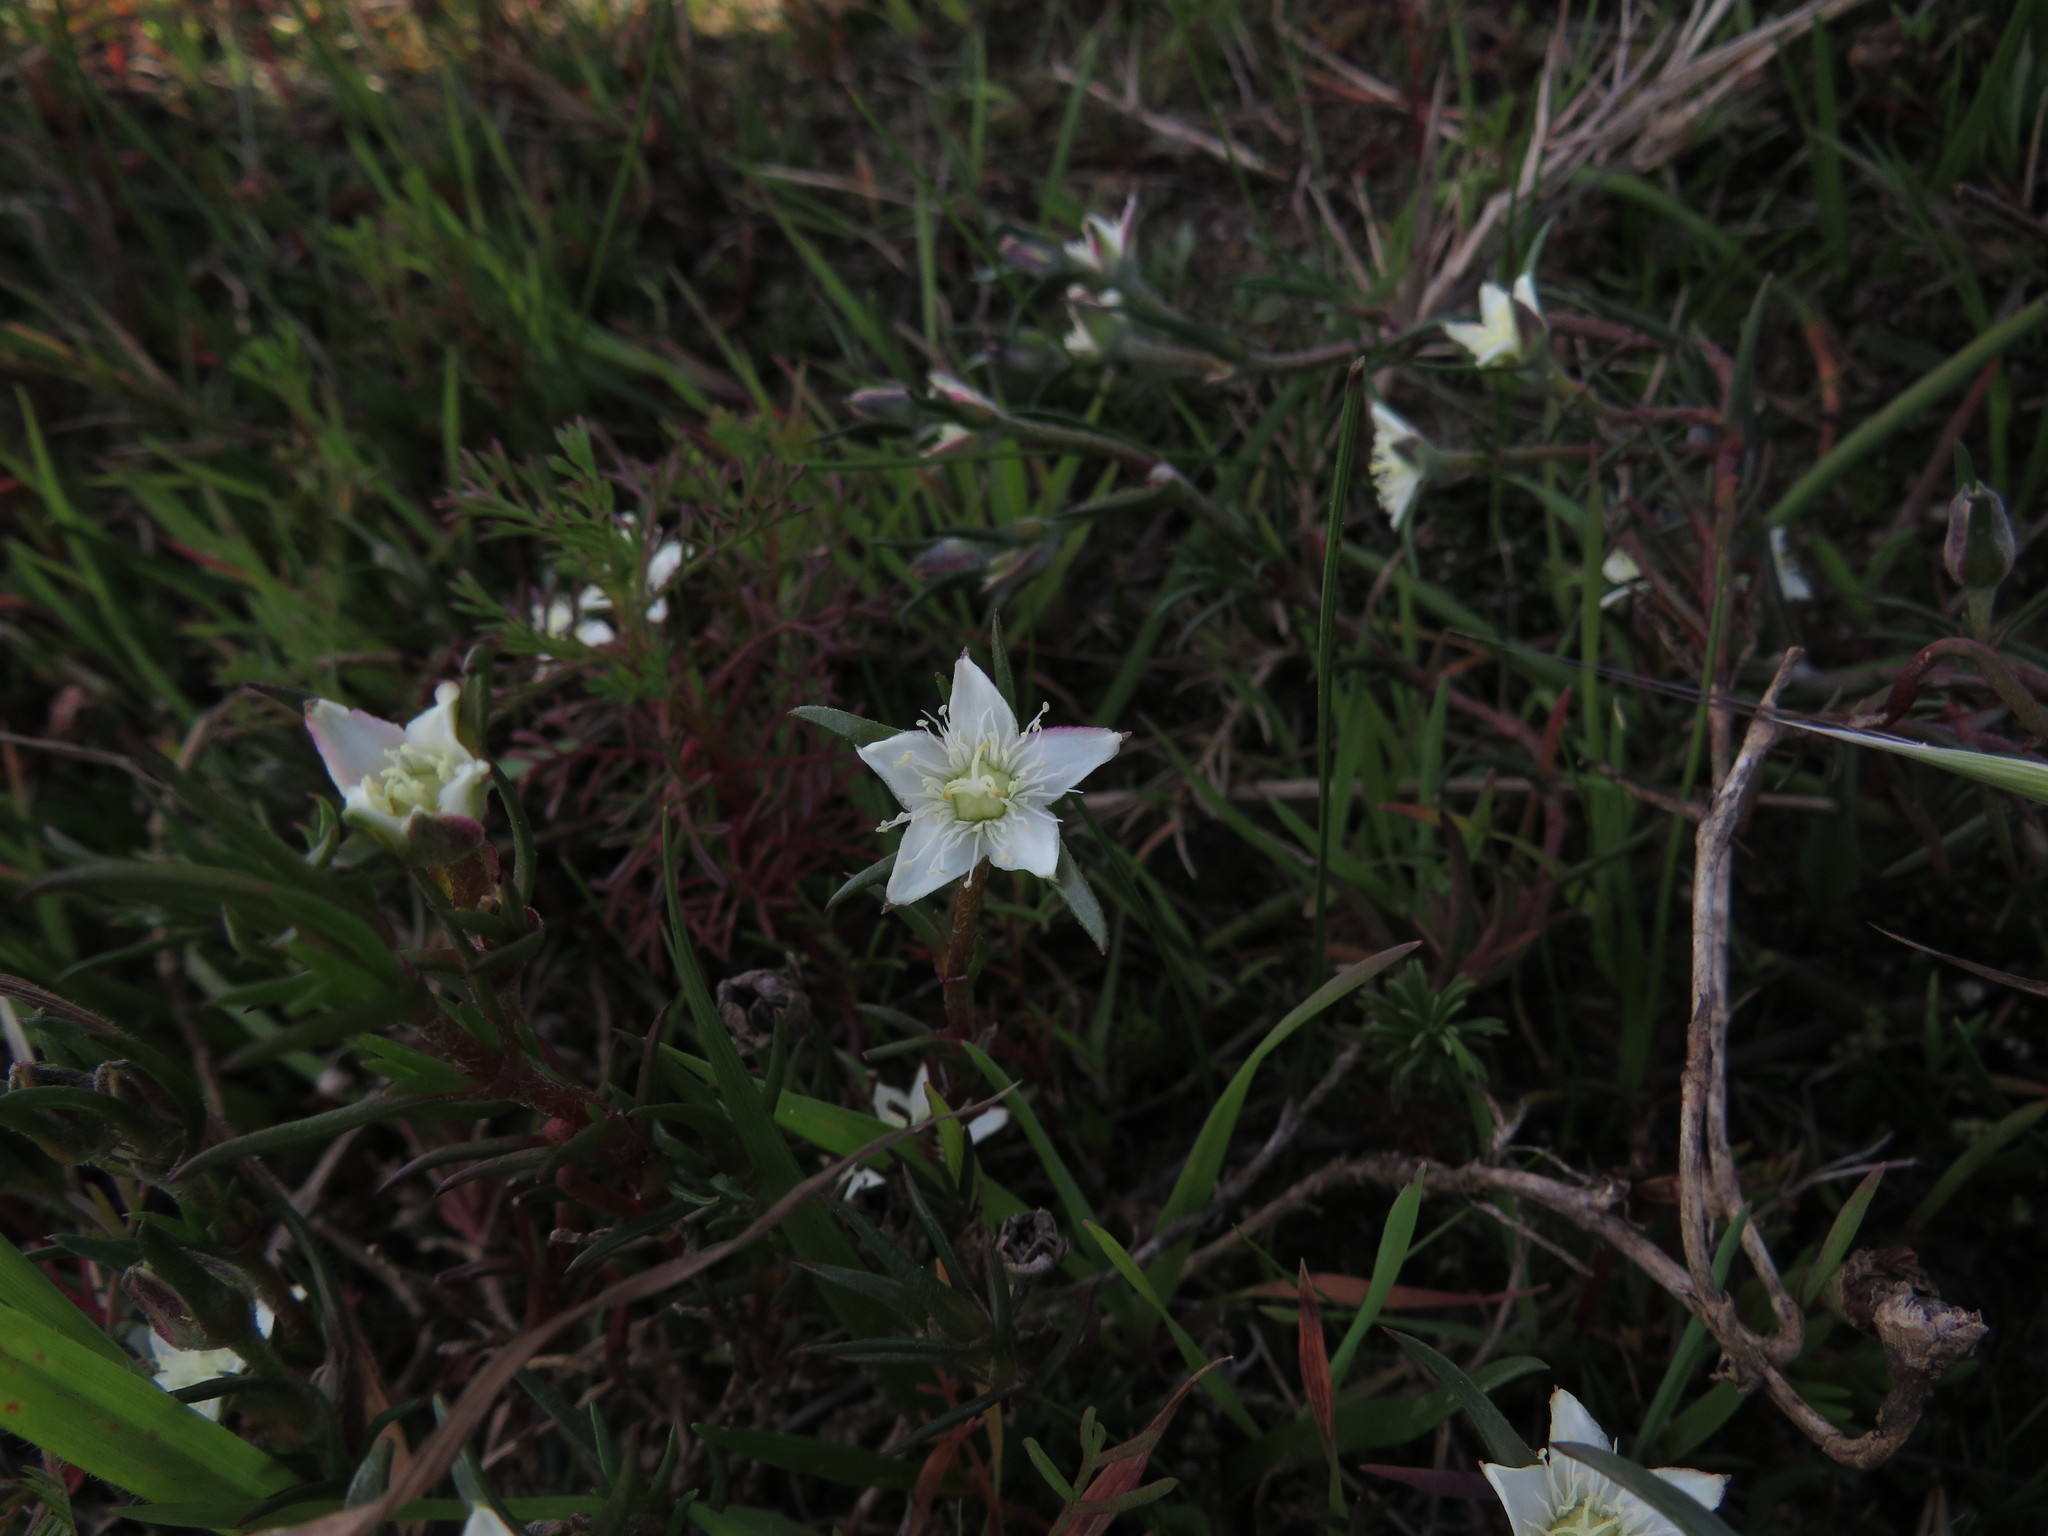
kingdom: Plantae
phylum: Tracheophyta
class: Magnoliopsida
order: Caryophyllales
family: Aizoaceae
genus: Aizoon
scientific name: Aizoon sarmentosum
